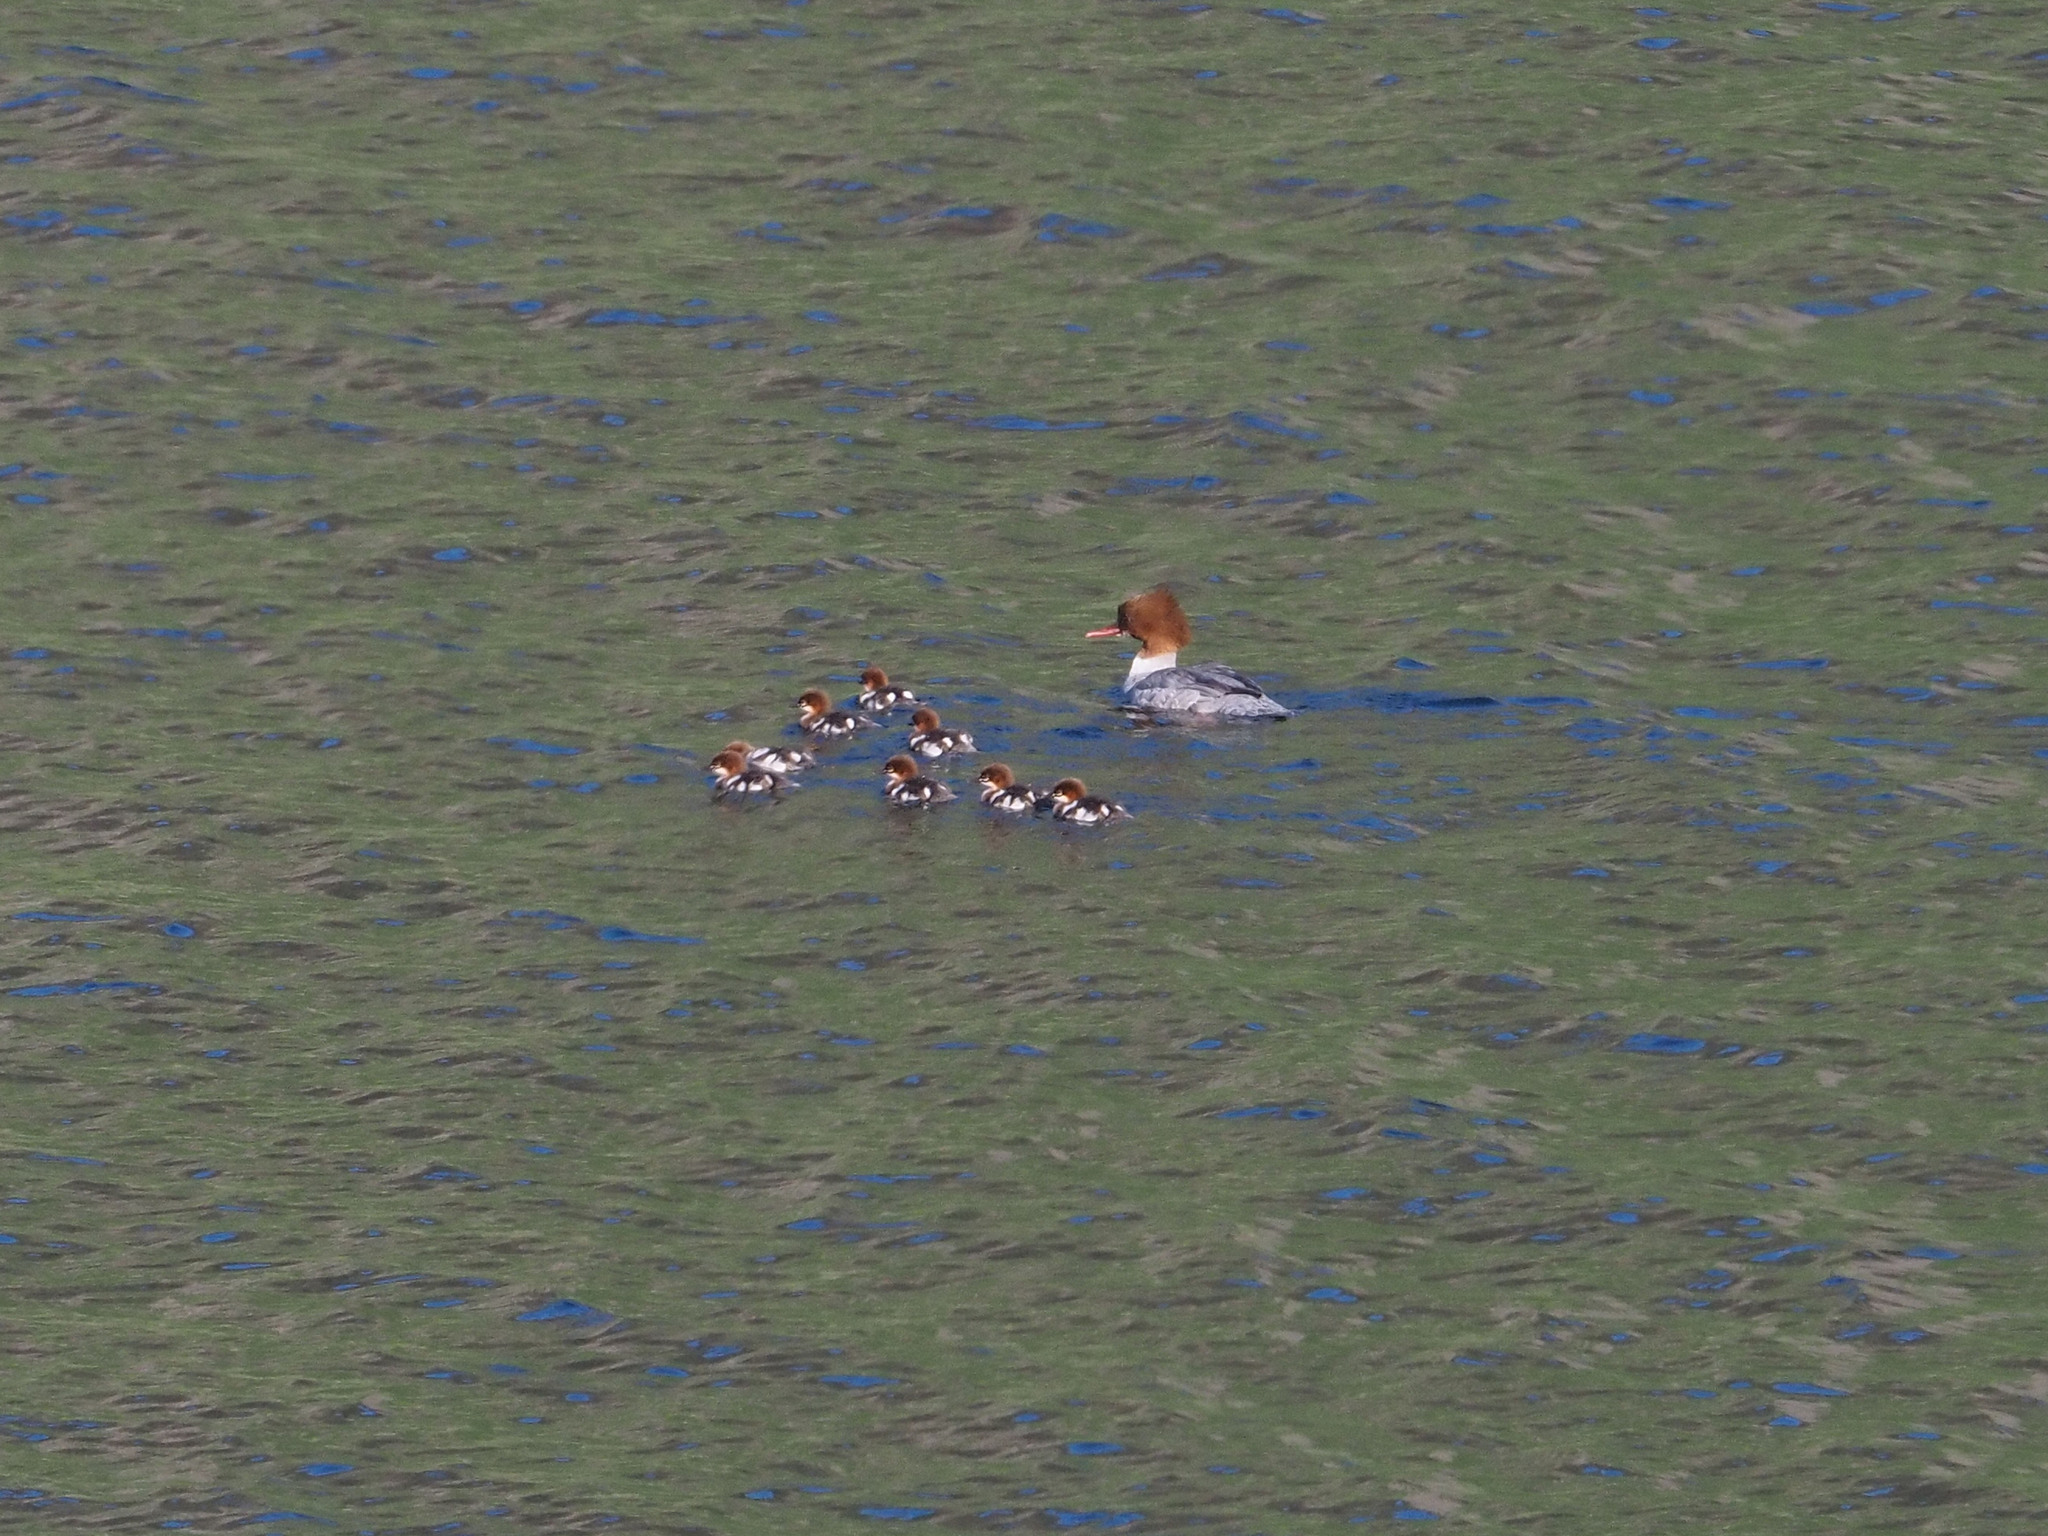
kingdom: Animalia
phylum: Chordata
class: Aves
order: Anseriformes
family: Anatidae
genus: Mergus
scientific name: Mergus merganser
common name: Common merganser
